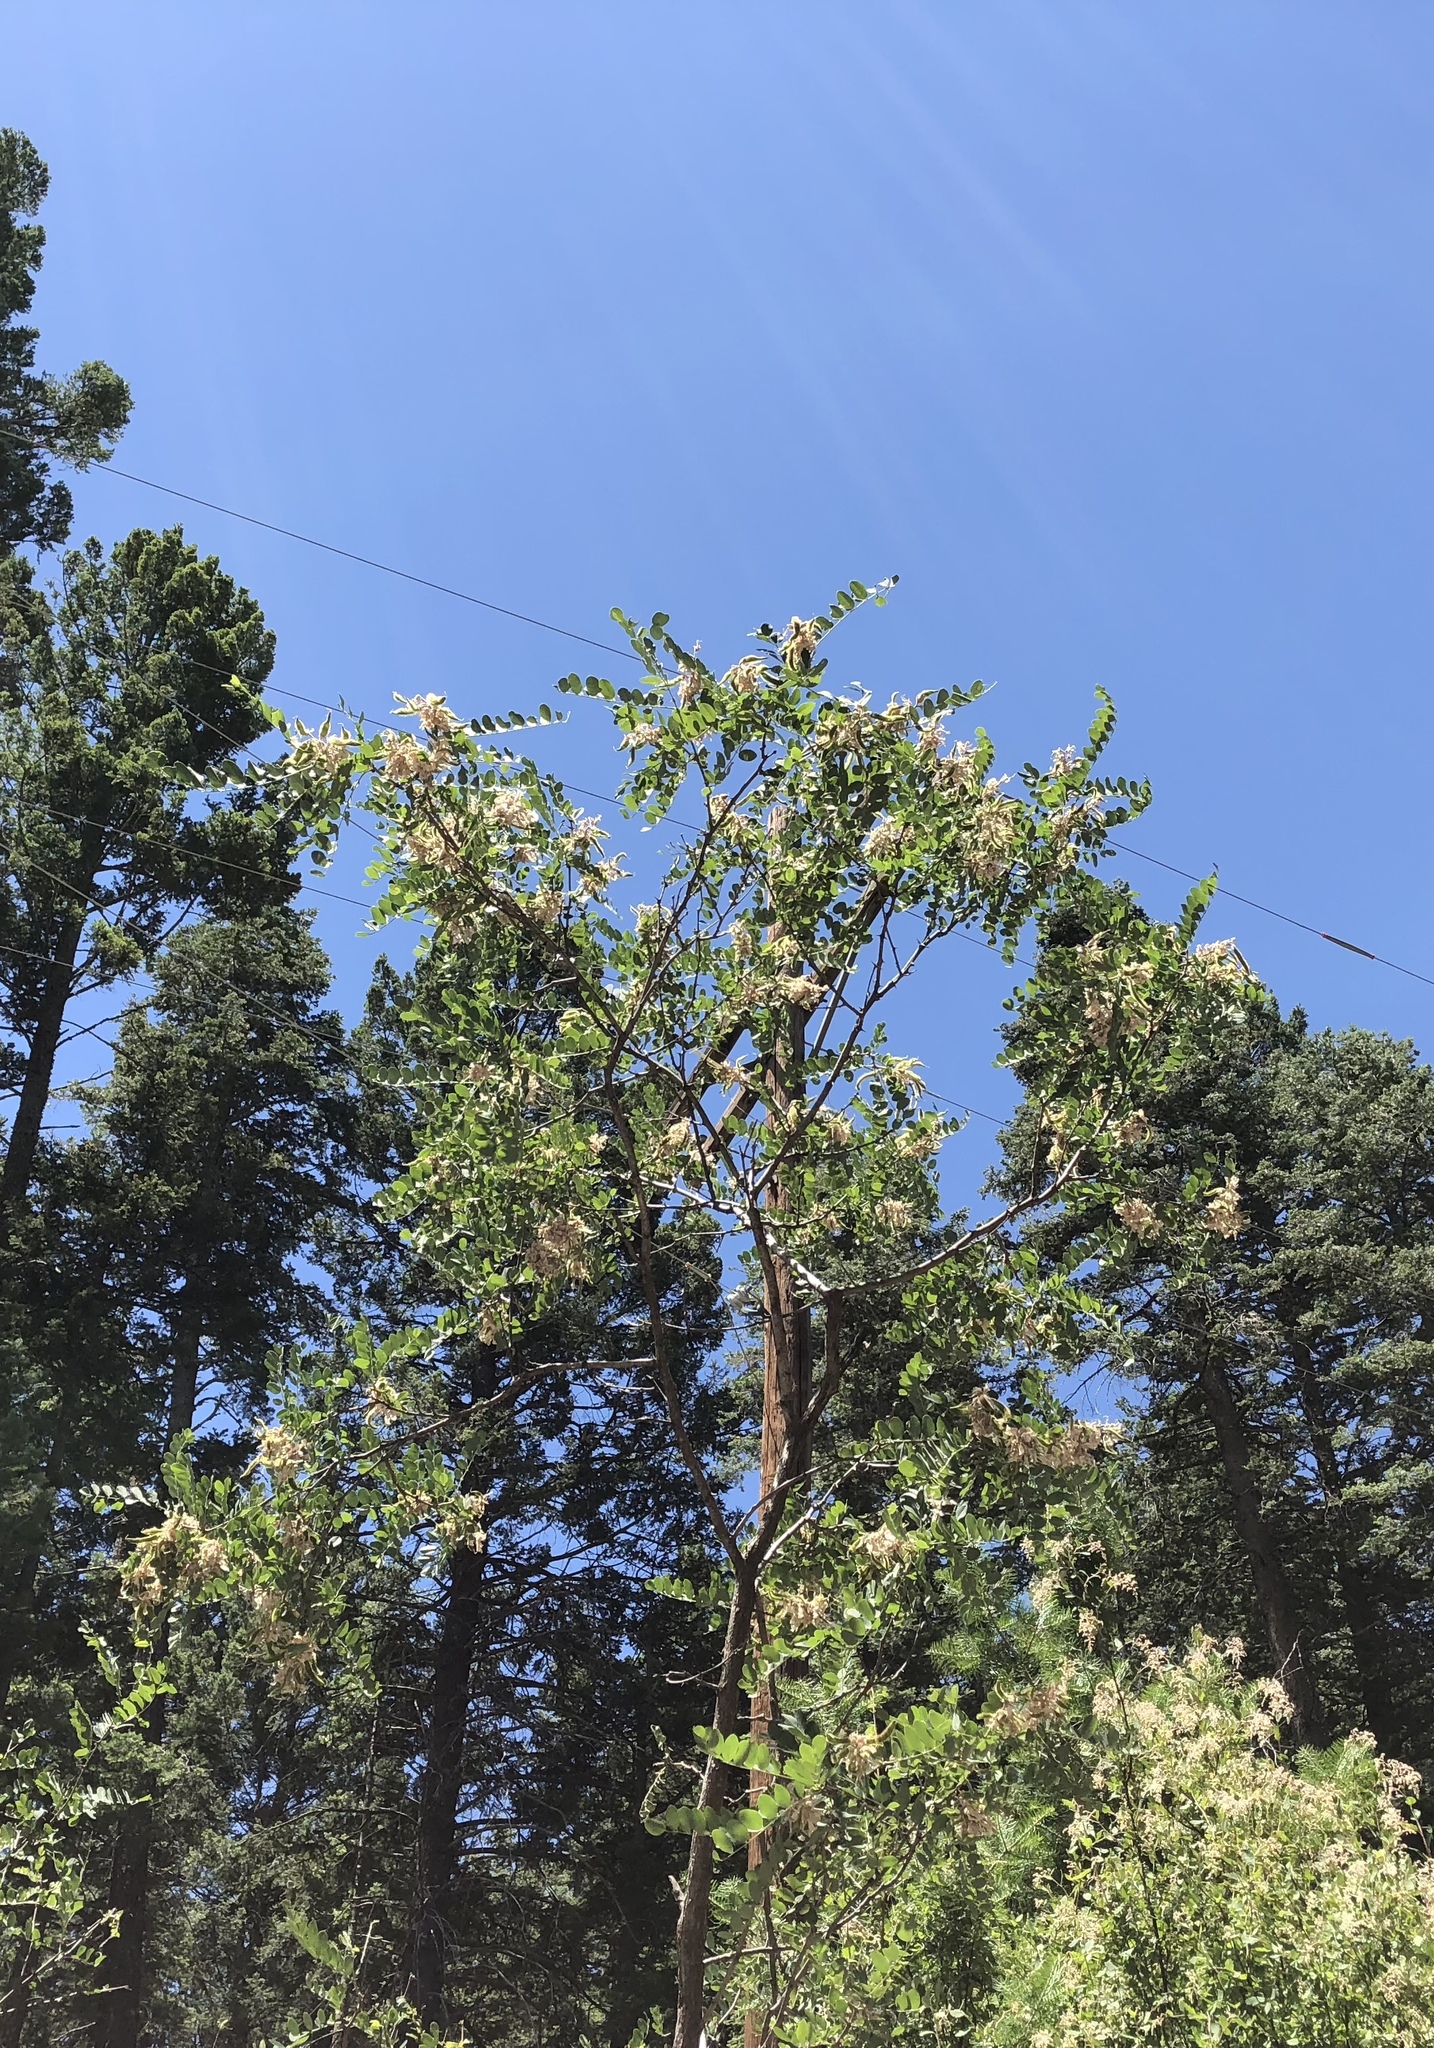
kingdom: Plantae
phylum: Tracheophyta
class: Magnoliopsida
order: Fabales
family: Fabaceae
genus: Robinia
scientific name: Robinia neomexicana
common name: New mexico locust
